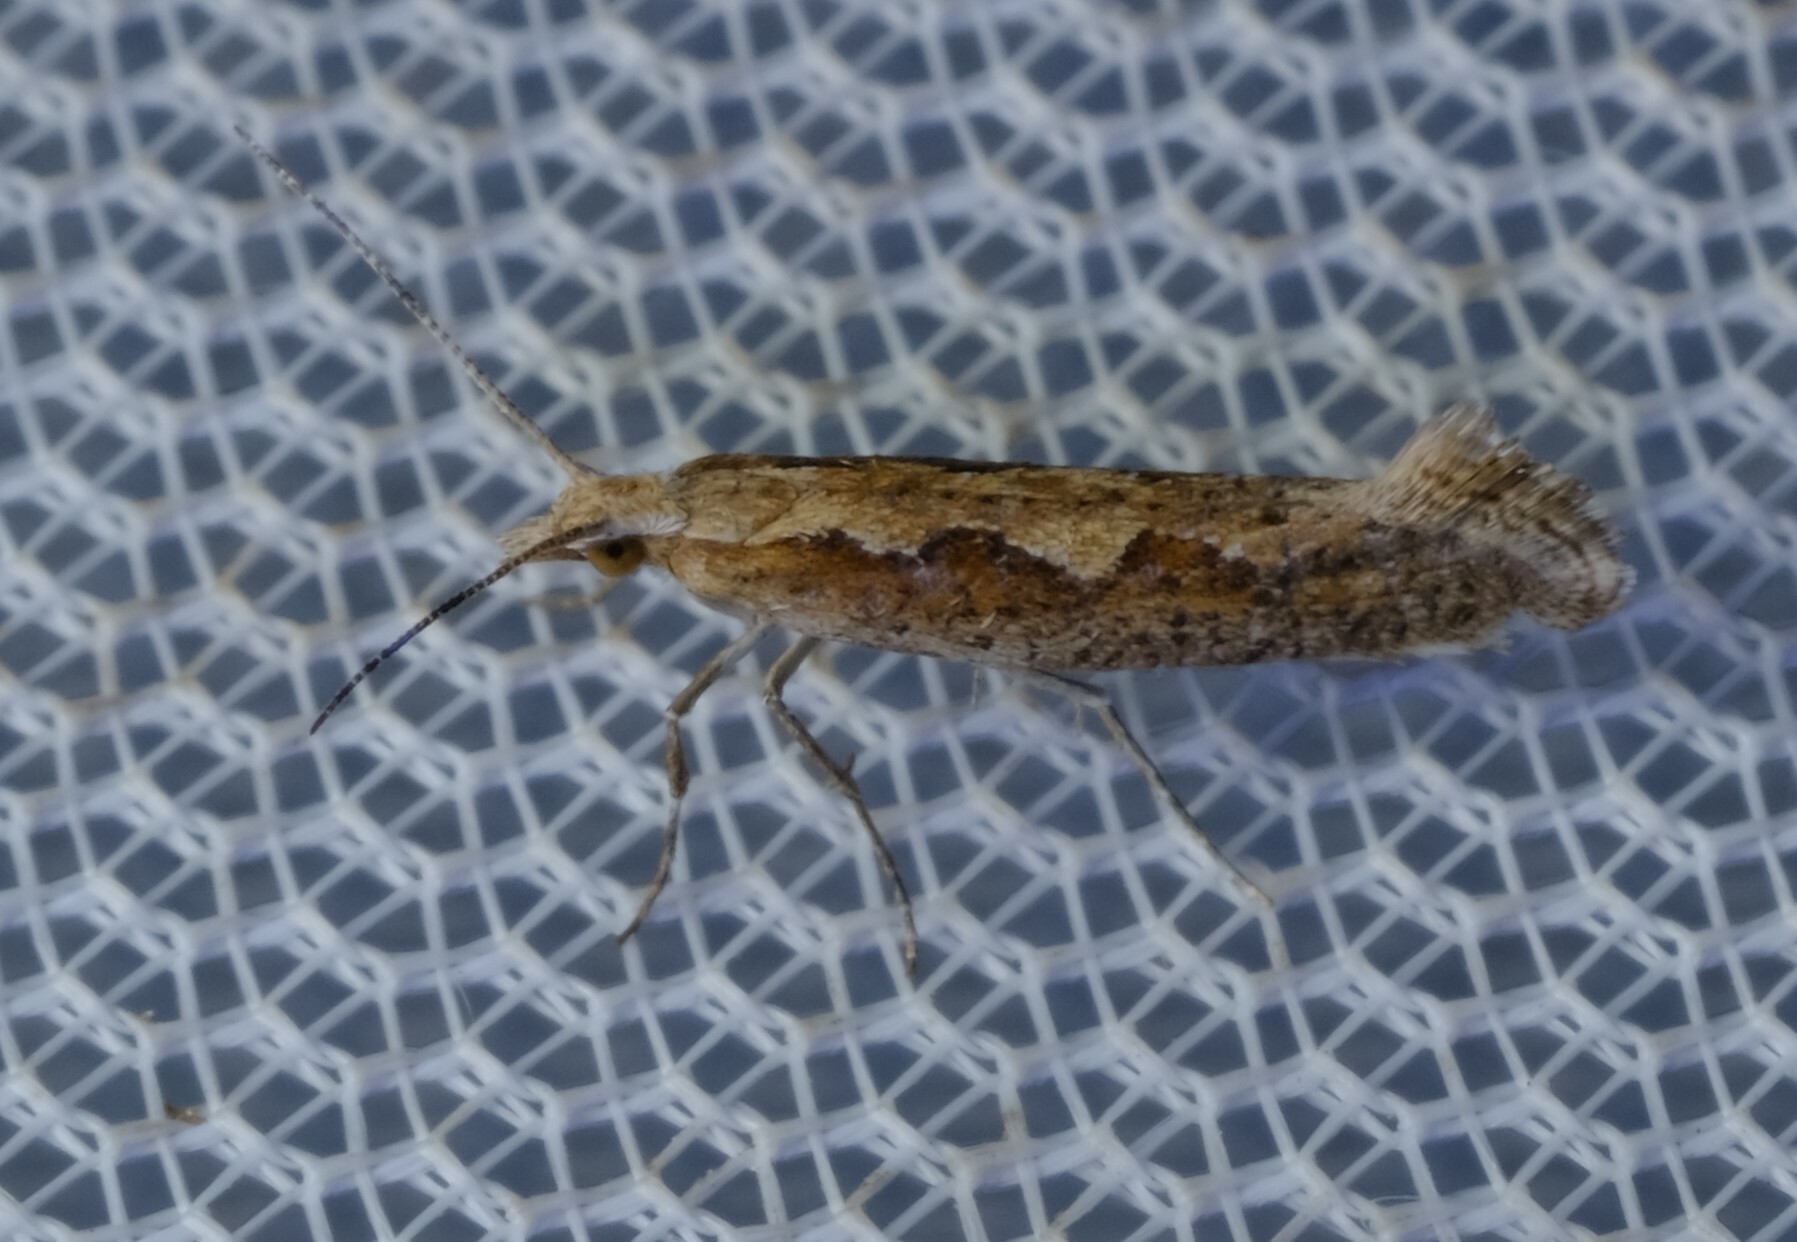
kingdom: Animalia
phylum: Arthropoda
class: Insecta
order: Lepidoptera
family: Plutellidae
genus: Plutella
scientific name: Plutella xylostella
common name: Diamond-back moth
